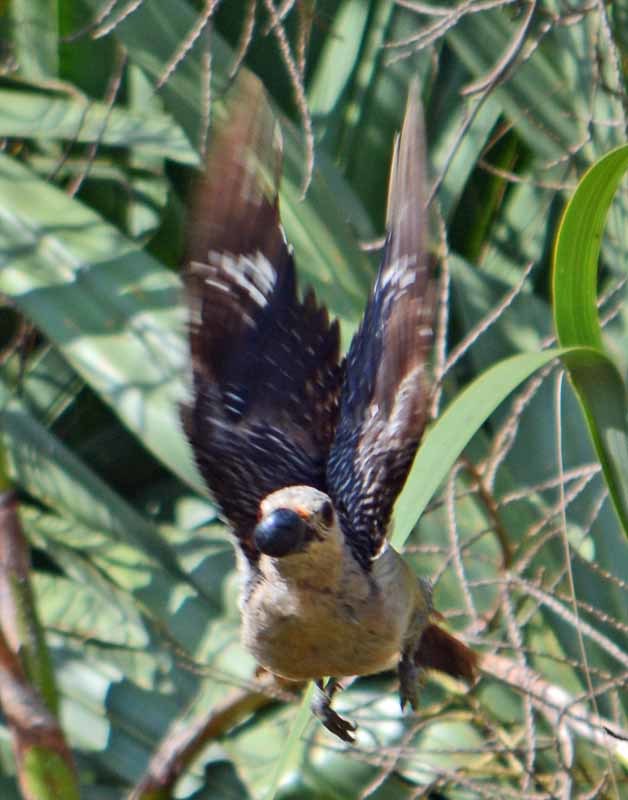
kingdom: Animalia
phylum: Chordata
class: Aves
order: Piciformes
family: Picidae
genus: Melanerpes
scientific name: Melanerpes aurifrons
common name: Golden-fronted woodpecker
